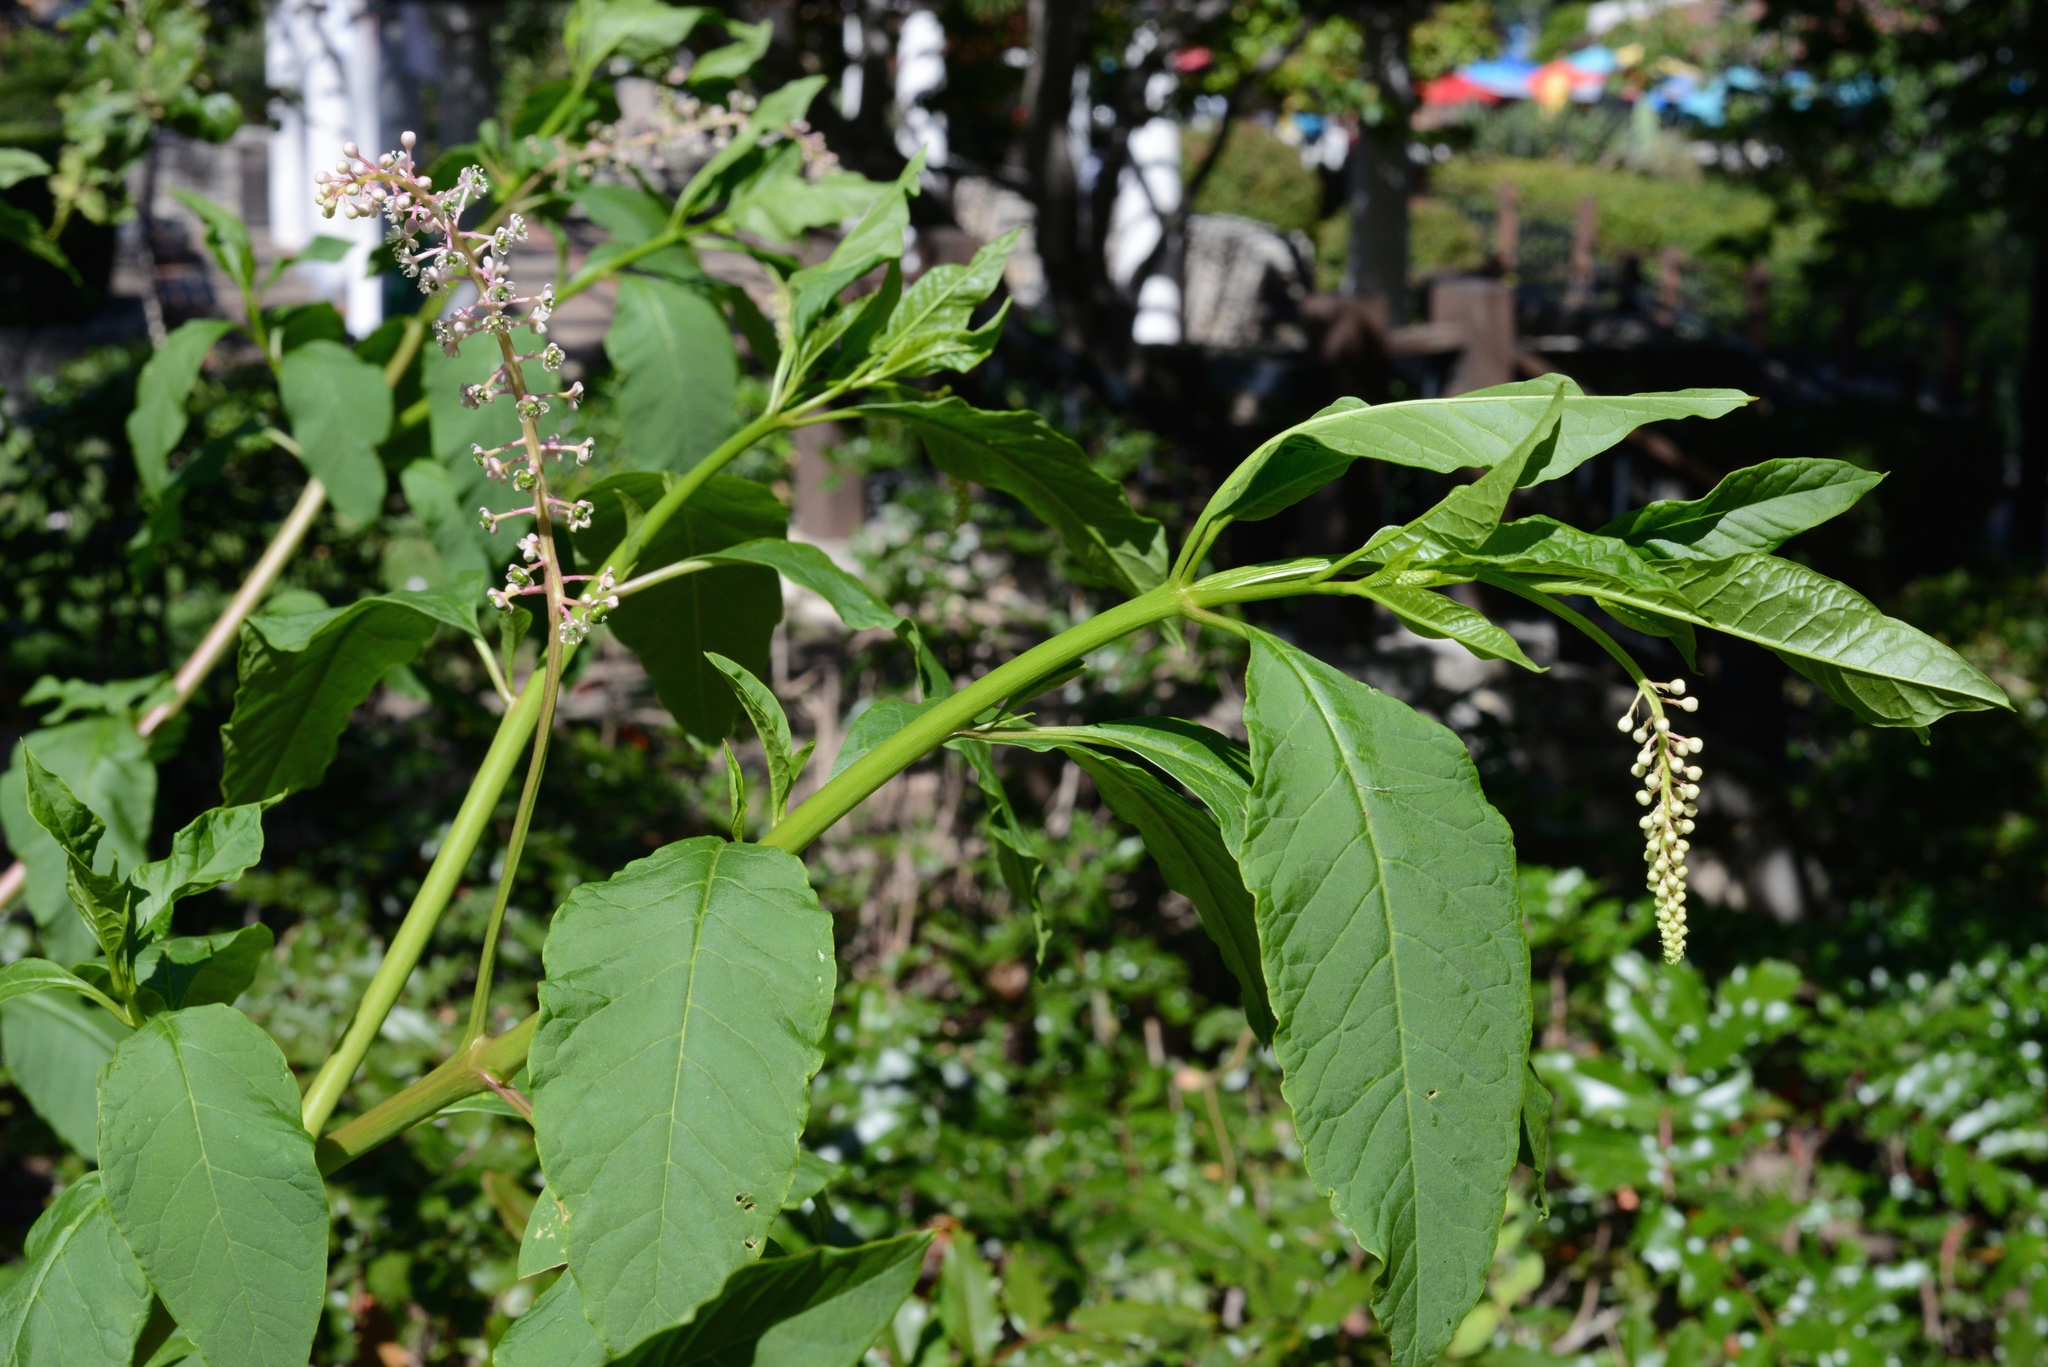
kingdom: Plantae
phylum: Tracheophyta
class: Magnoliopsida
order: Caryophyllales
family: Phytolaccaceae
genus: Phytolacca
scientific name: Phytolacca americana
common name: American pokeweed
